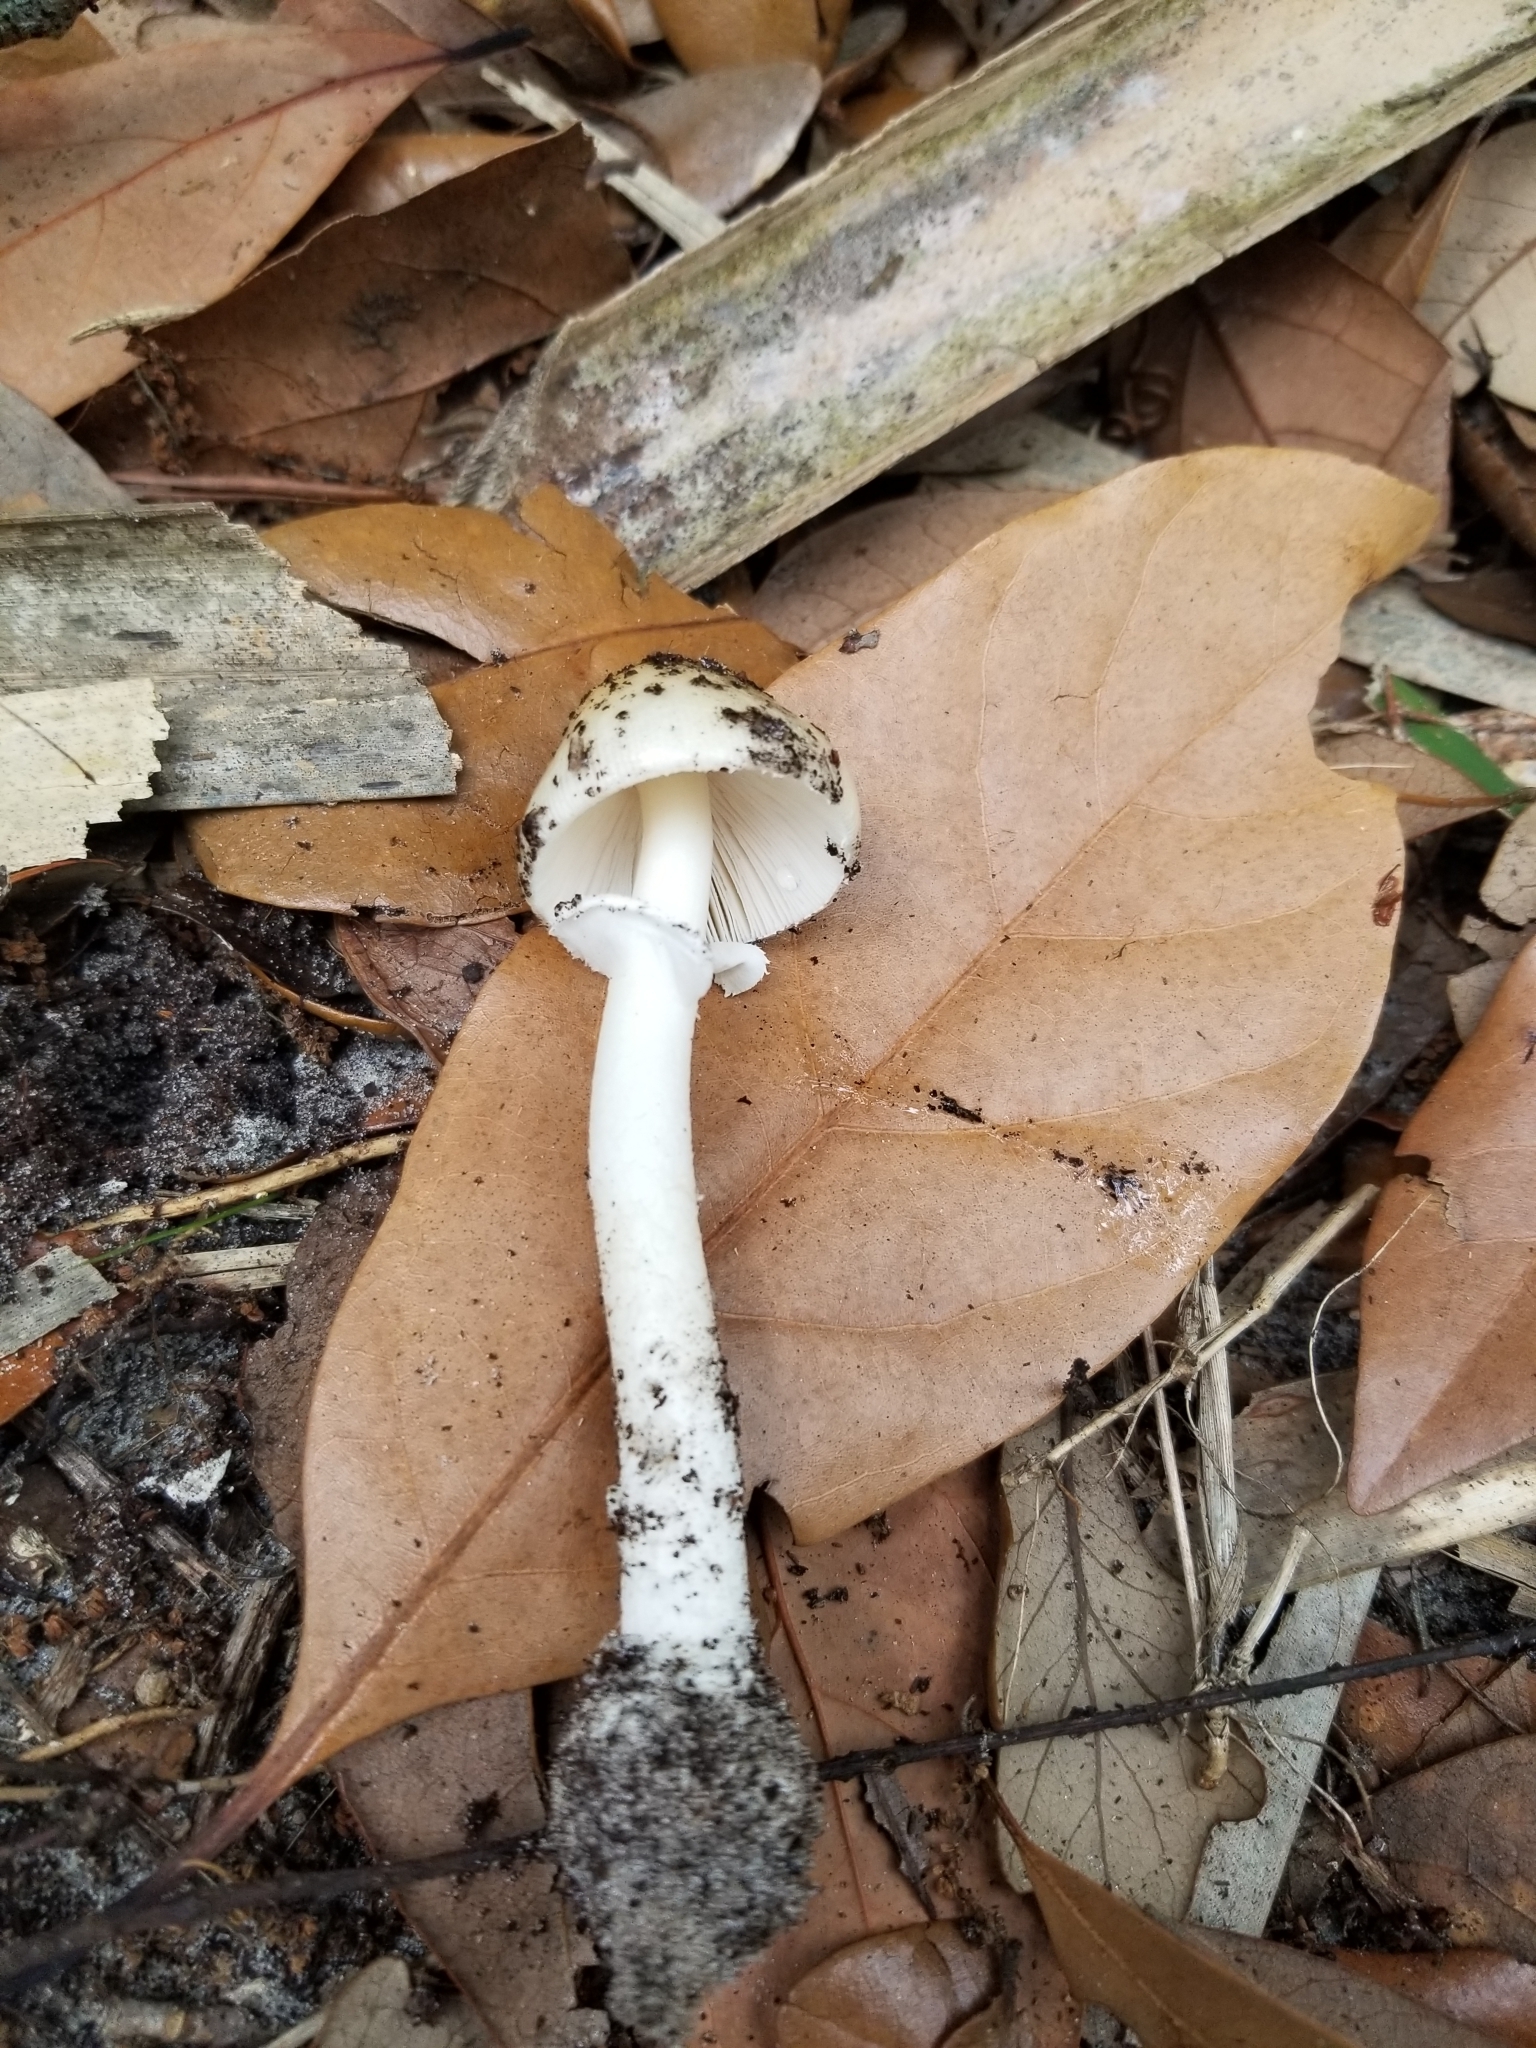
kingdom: Fungi
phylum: Basidiomycota
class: Agaricomycetes
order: Agaricales
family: Amanitaceae
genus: Amanita
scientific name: Amanita bisporigera
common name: Eastern north american destroying angel
